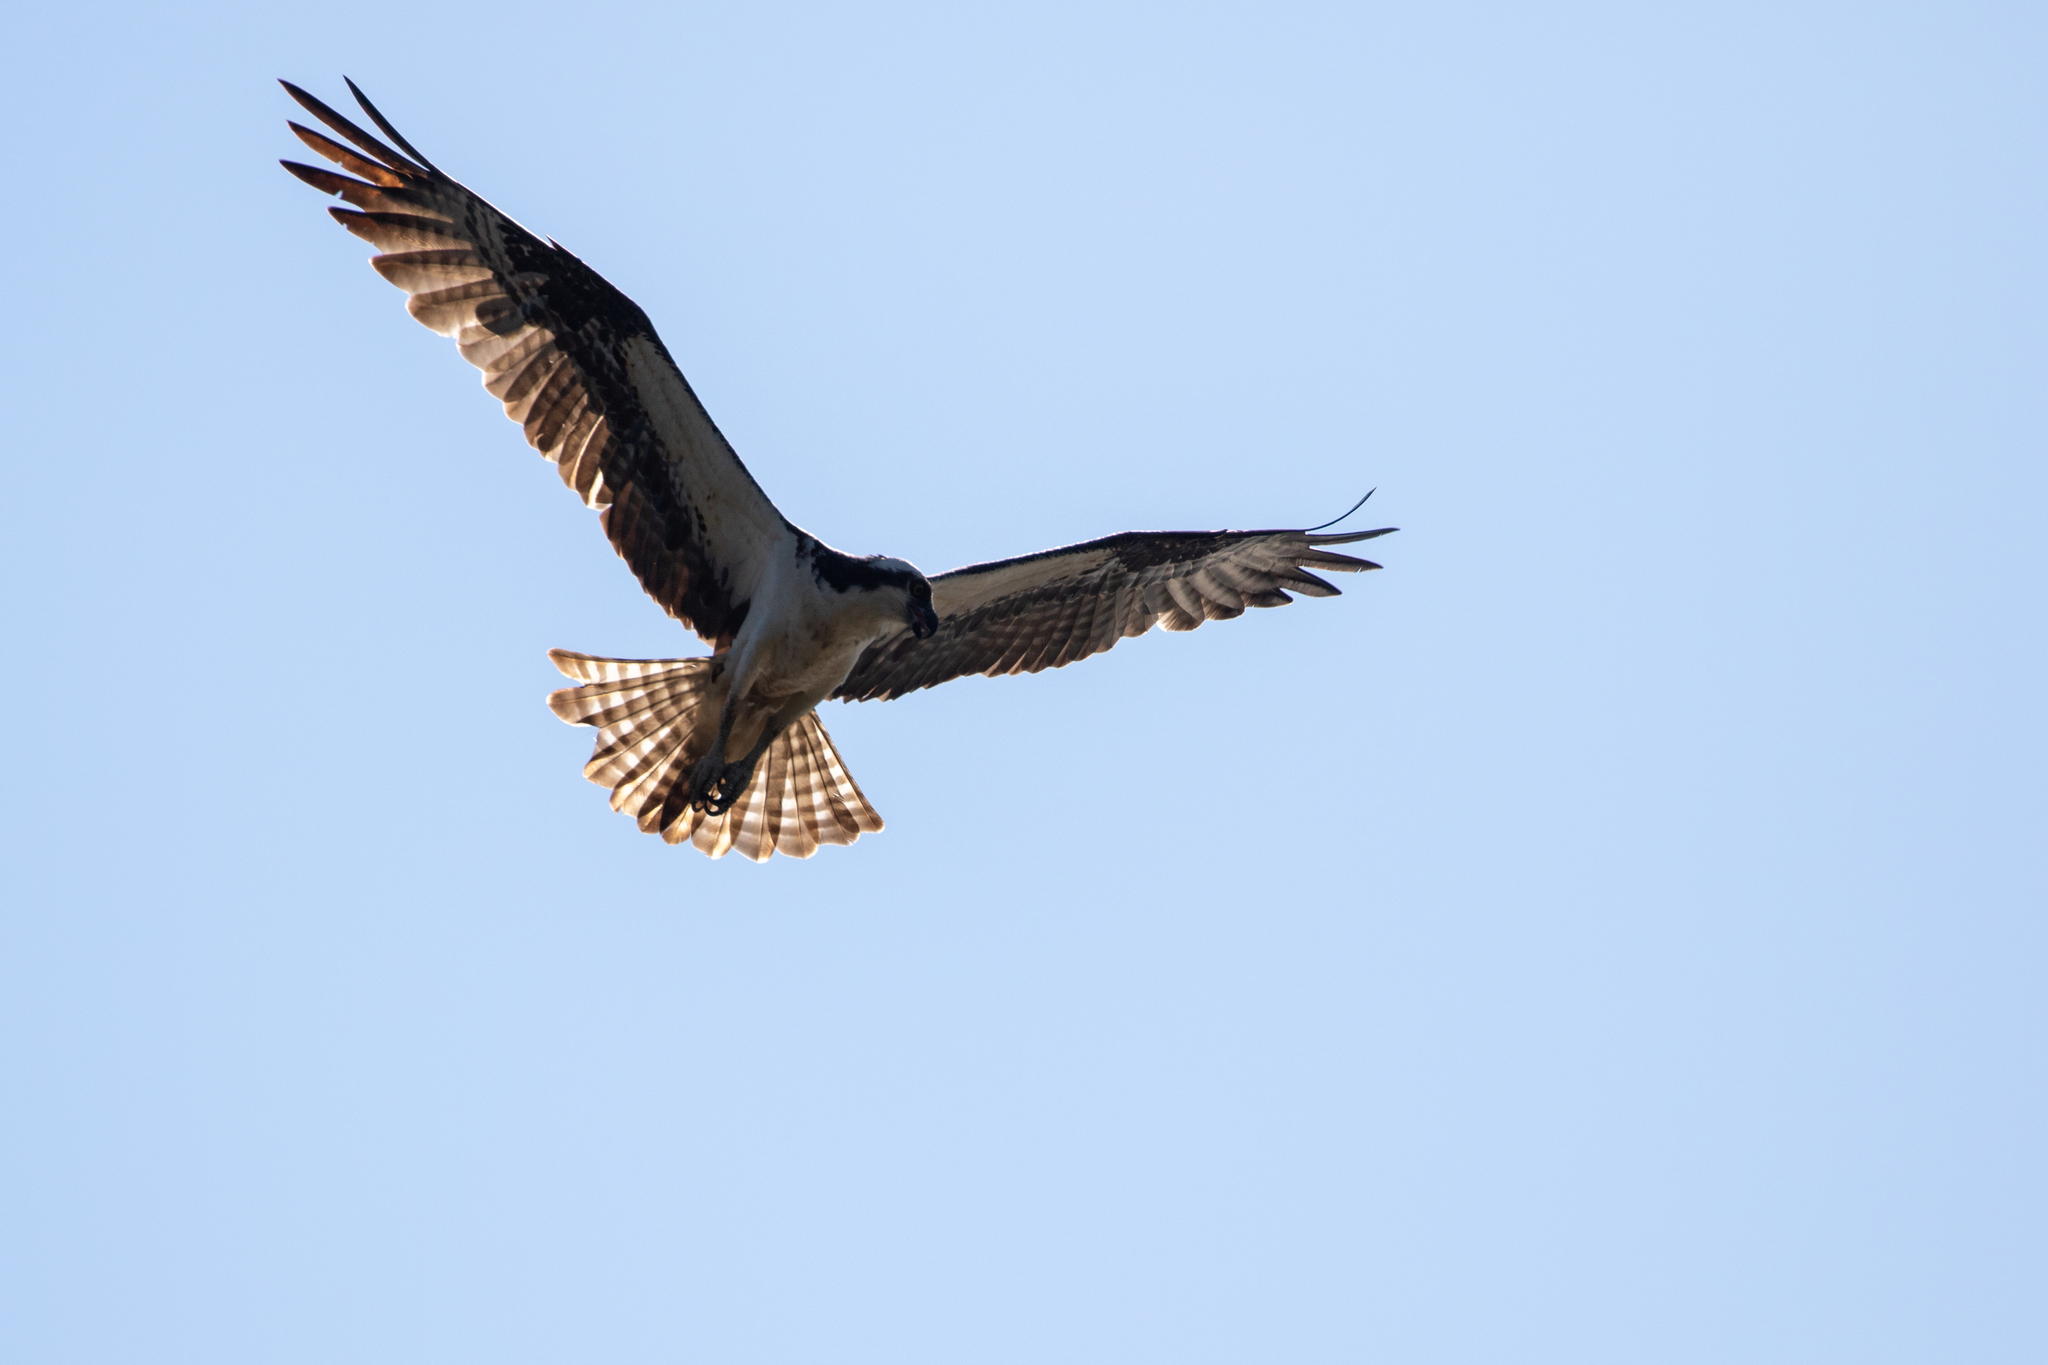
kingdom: Animalia
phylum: Chordata
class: Aves
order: Accipitriformes
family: Pandionidae
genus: Pandion
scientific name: Pandion haliaetus
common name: Osprey
